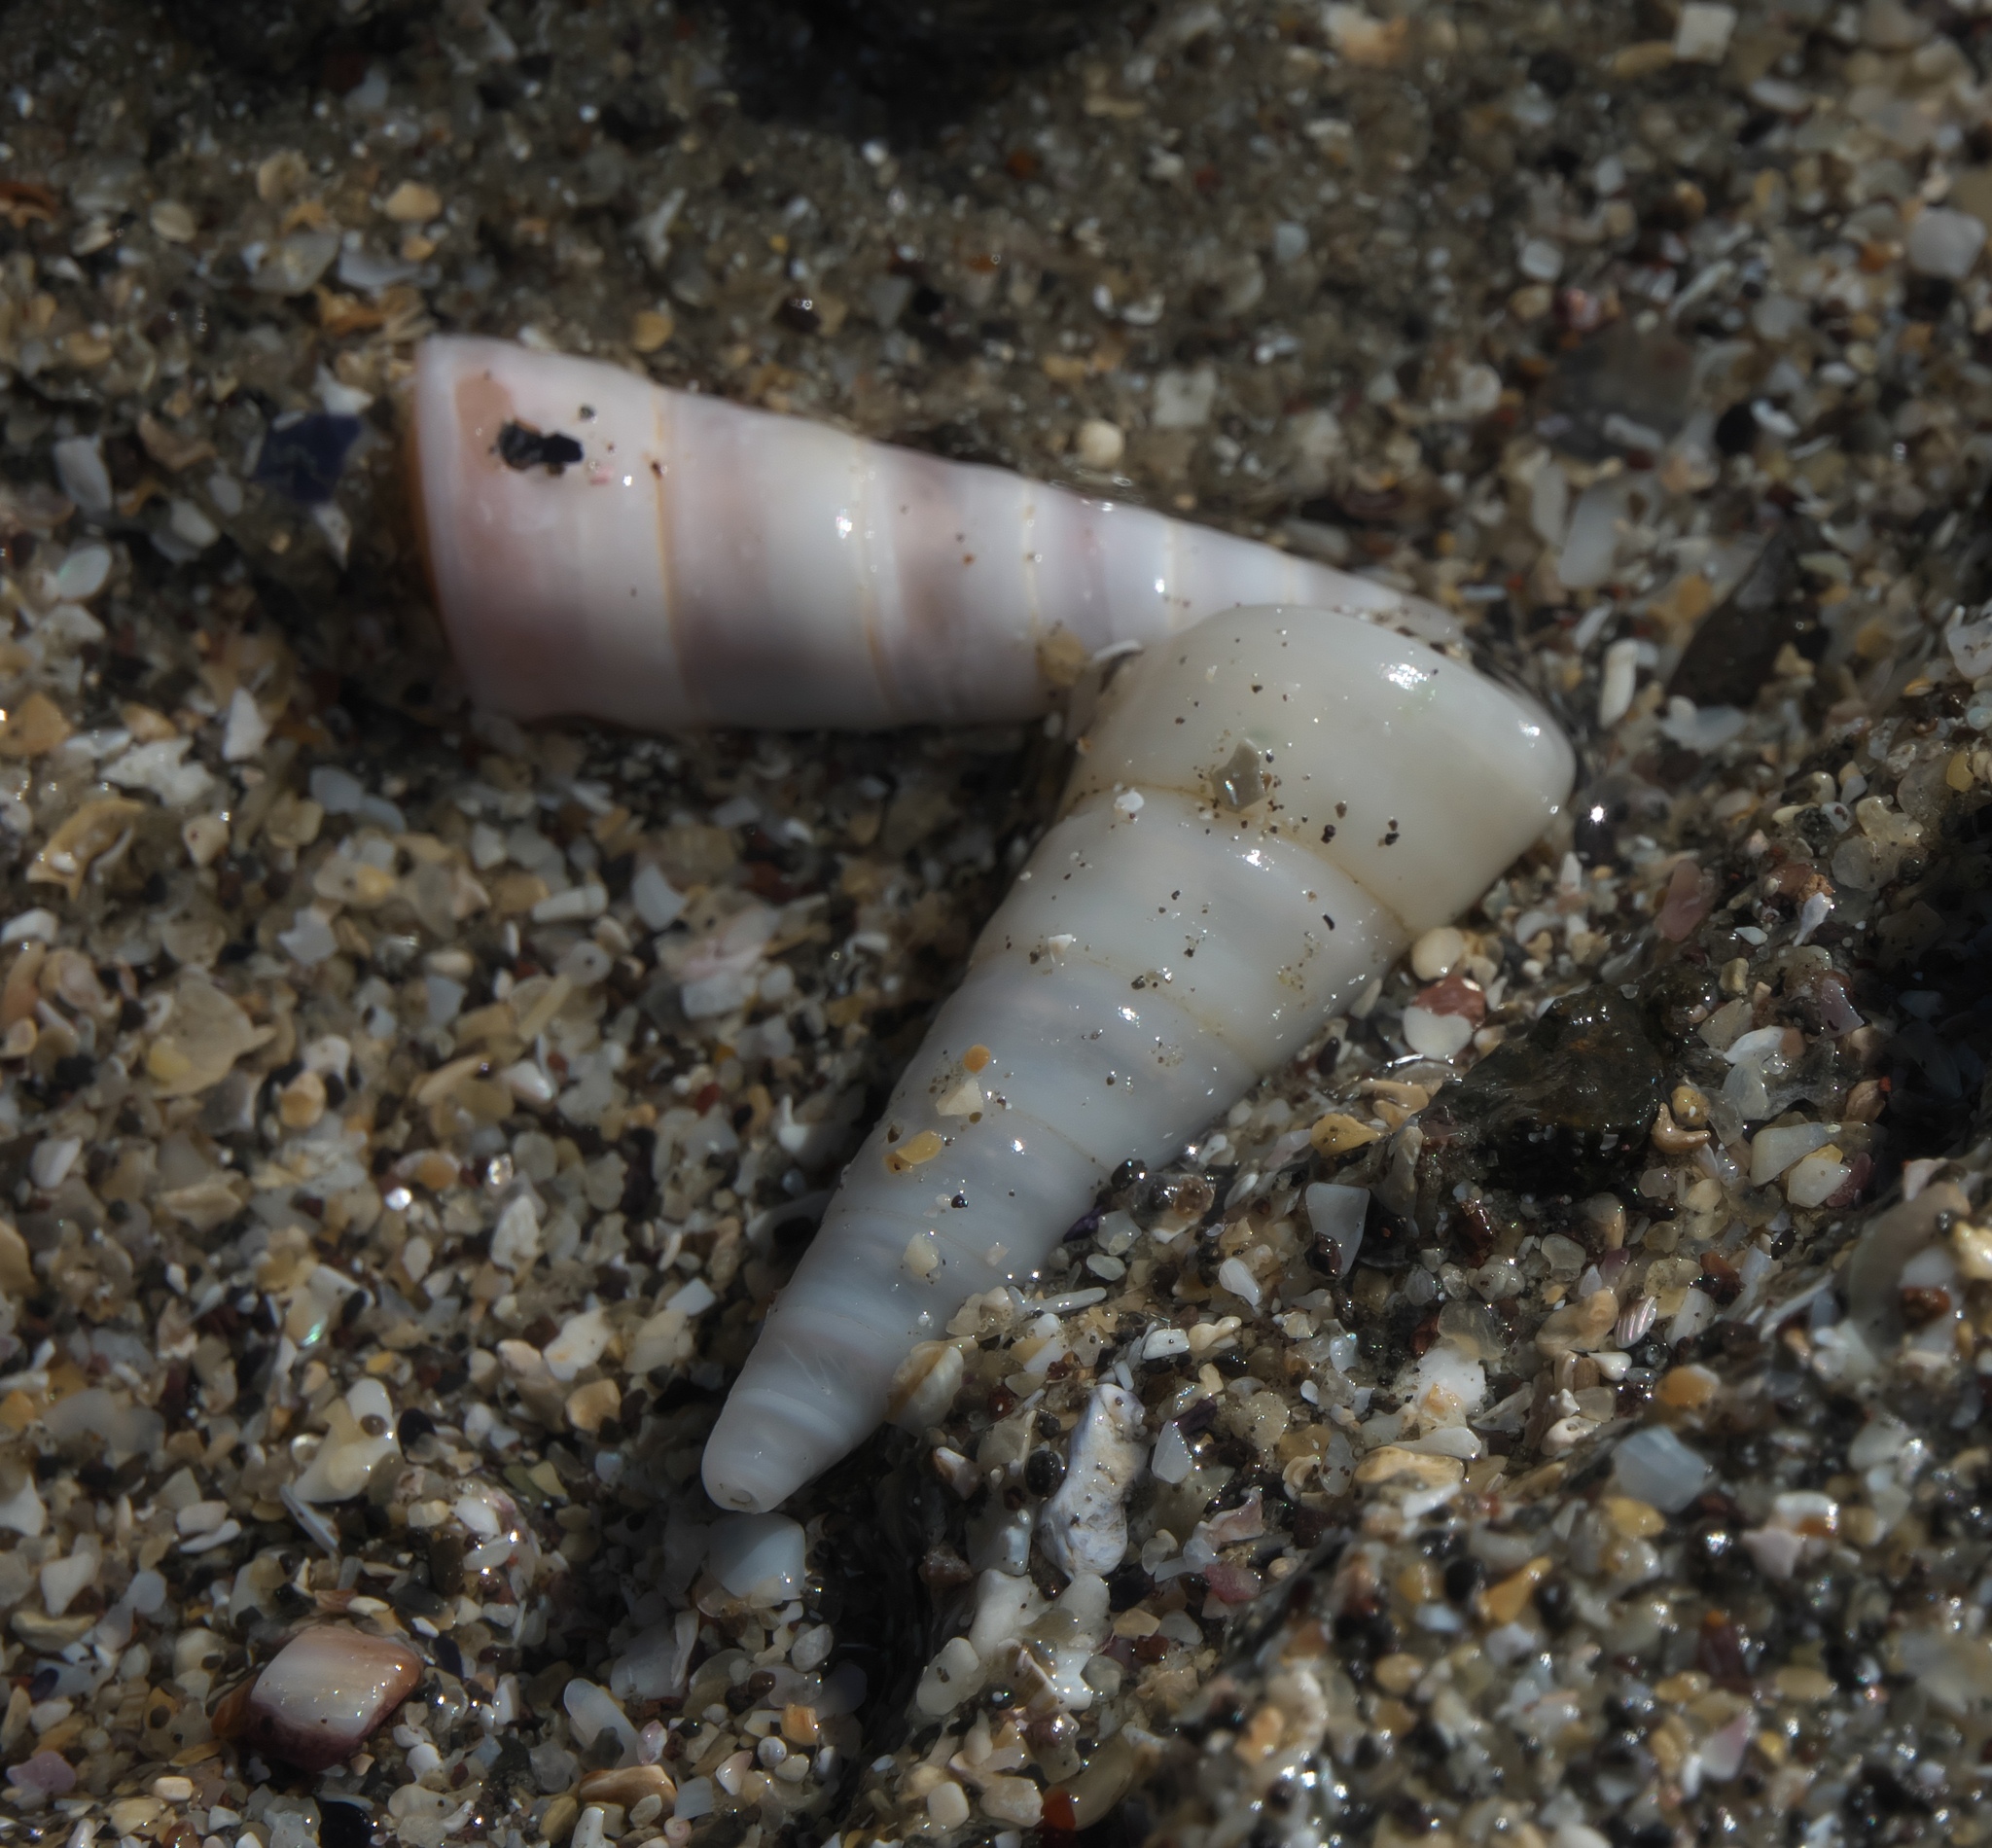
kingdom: Animalia
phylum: Mollusca
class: Gastropoda
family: Turritellidae
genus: Maoricolpus
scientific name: Maoricolpus roseus
